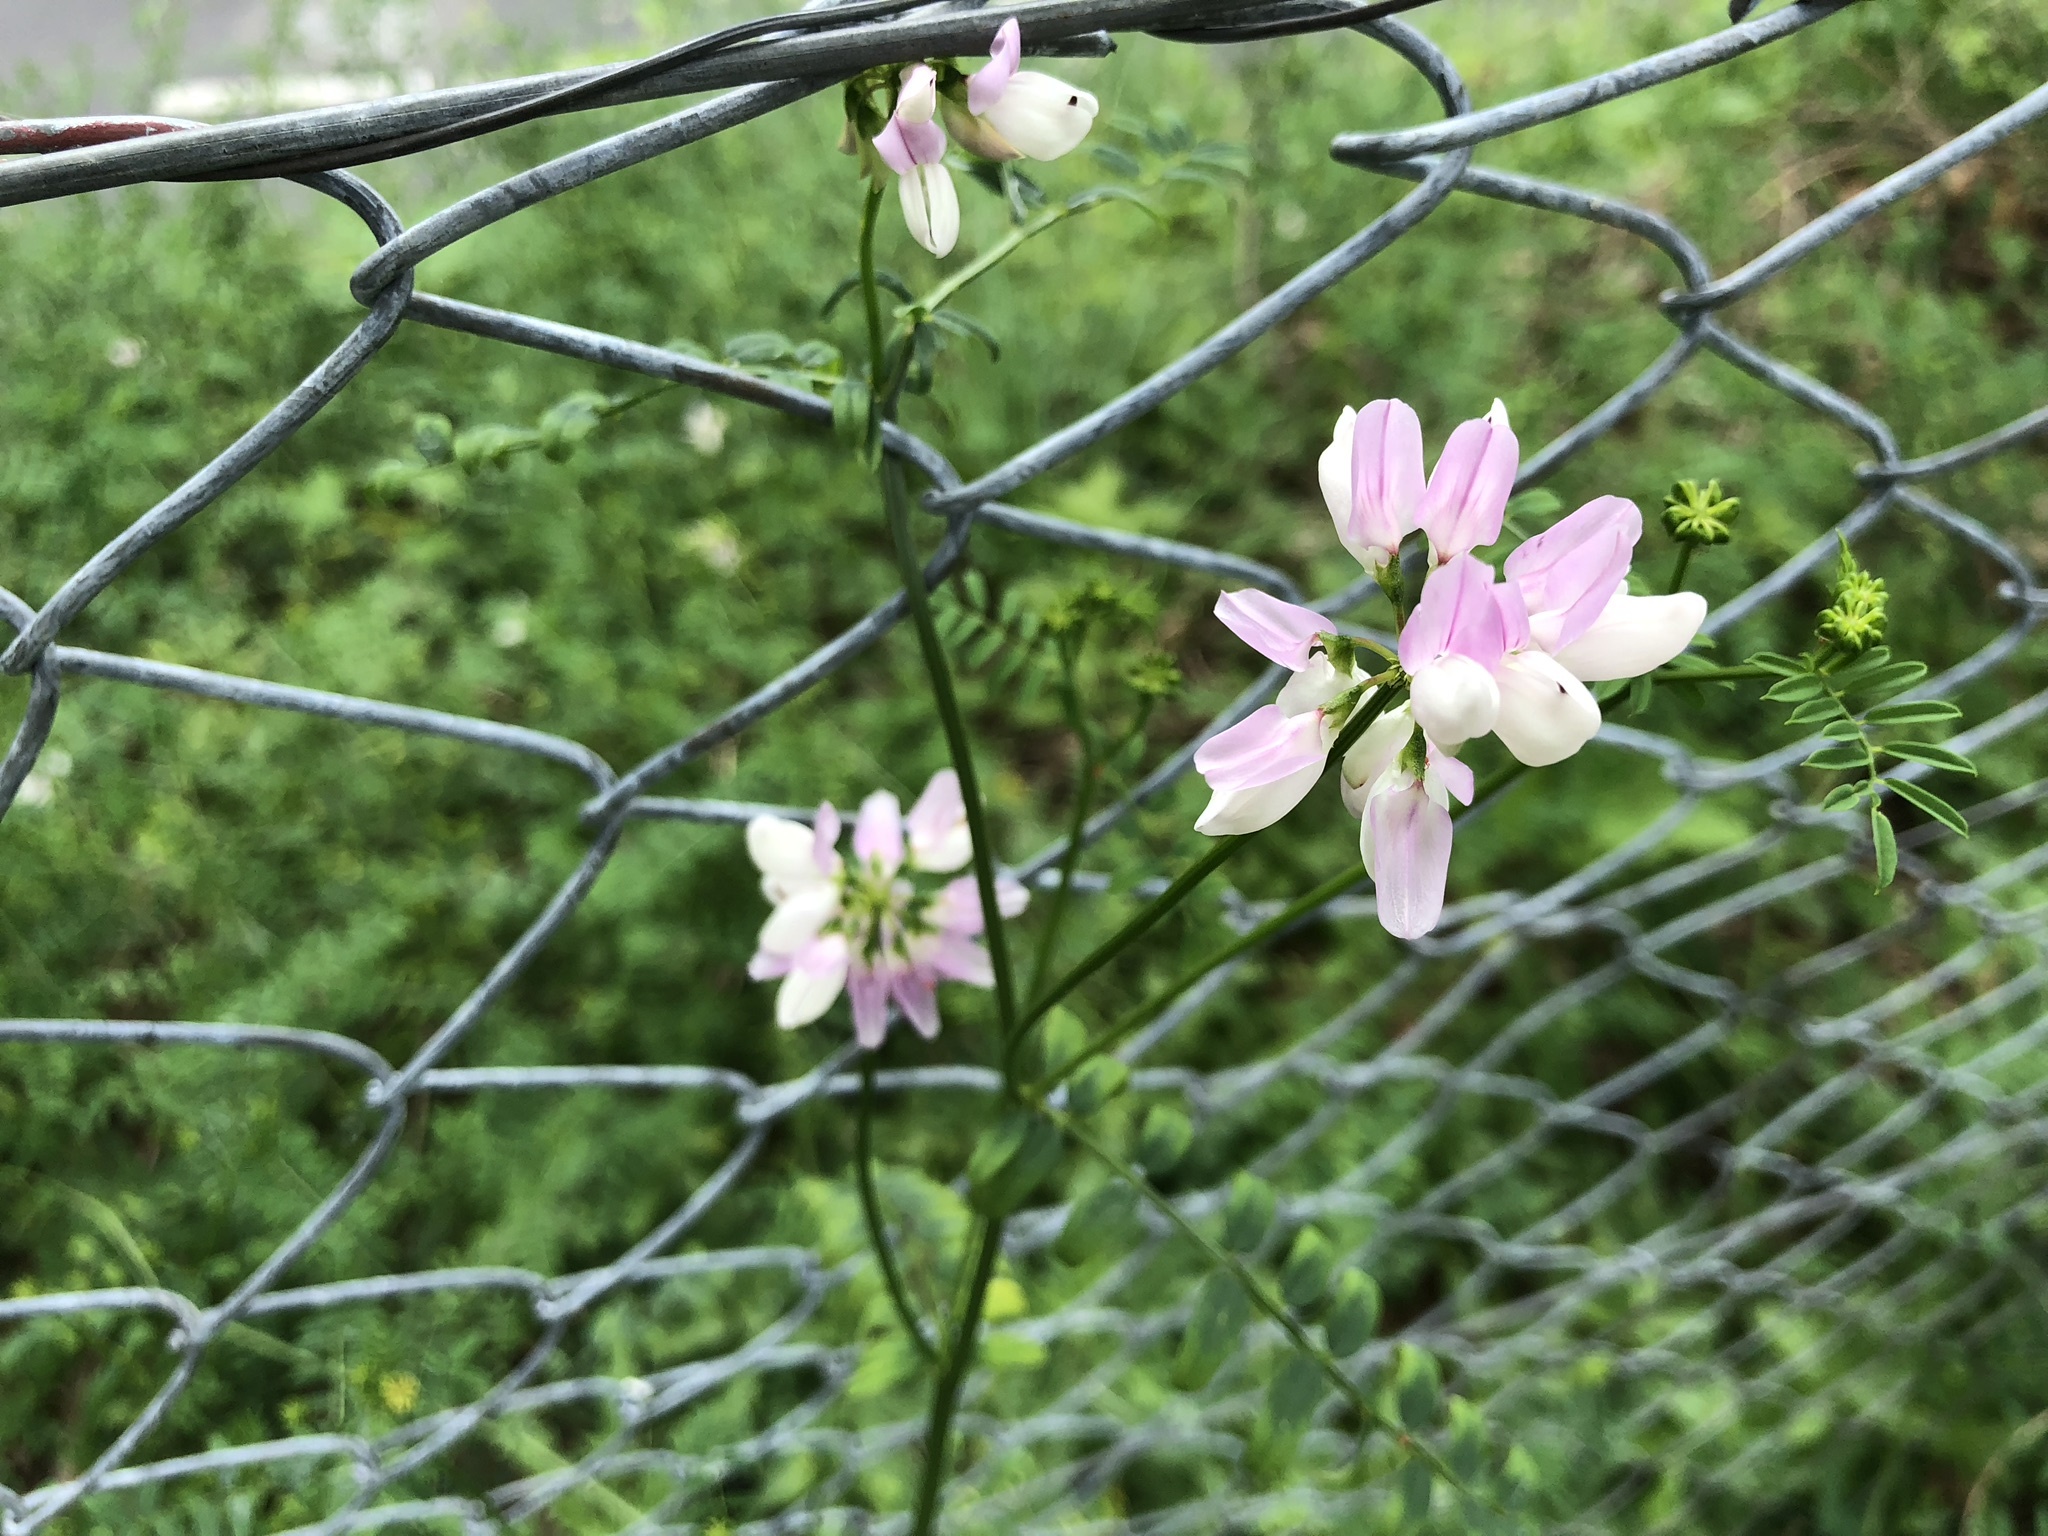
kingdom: Plantae
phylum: Tracheophyta
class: Magnoliopsida
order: Fabales
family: Fabaceae
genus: Coronilla
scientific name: Coronilla varia
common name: Crownvetch
